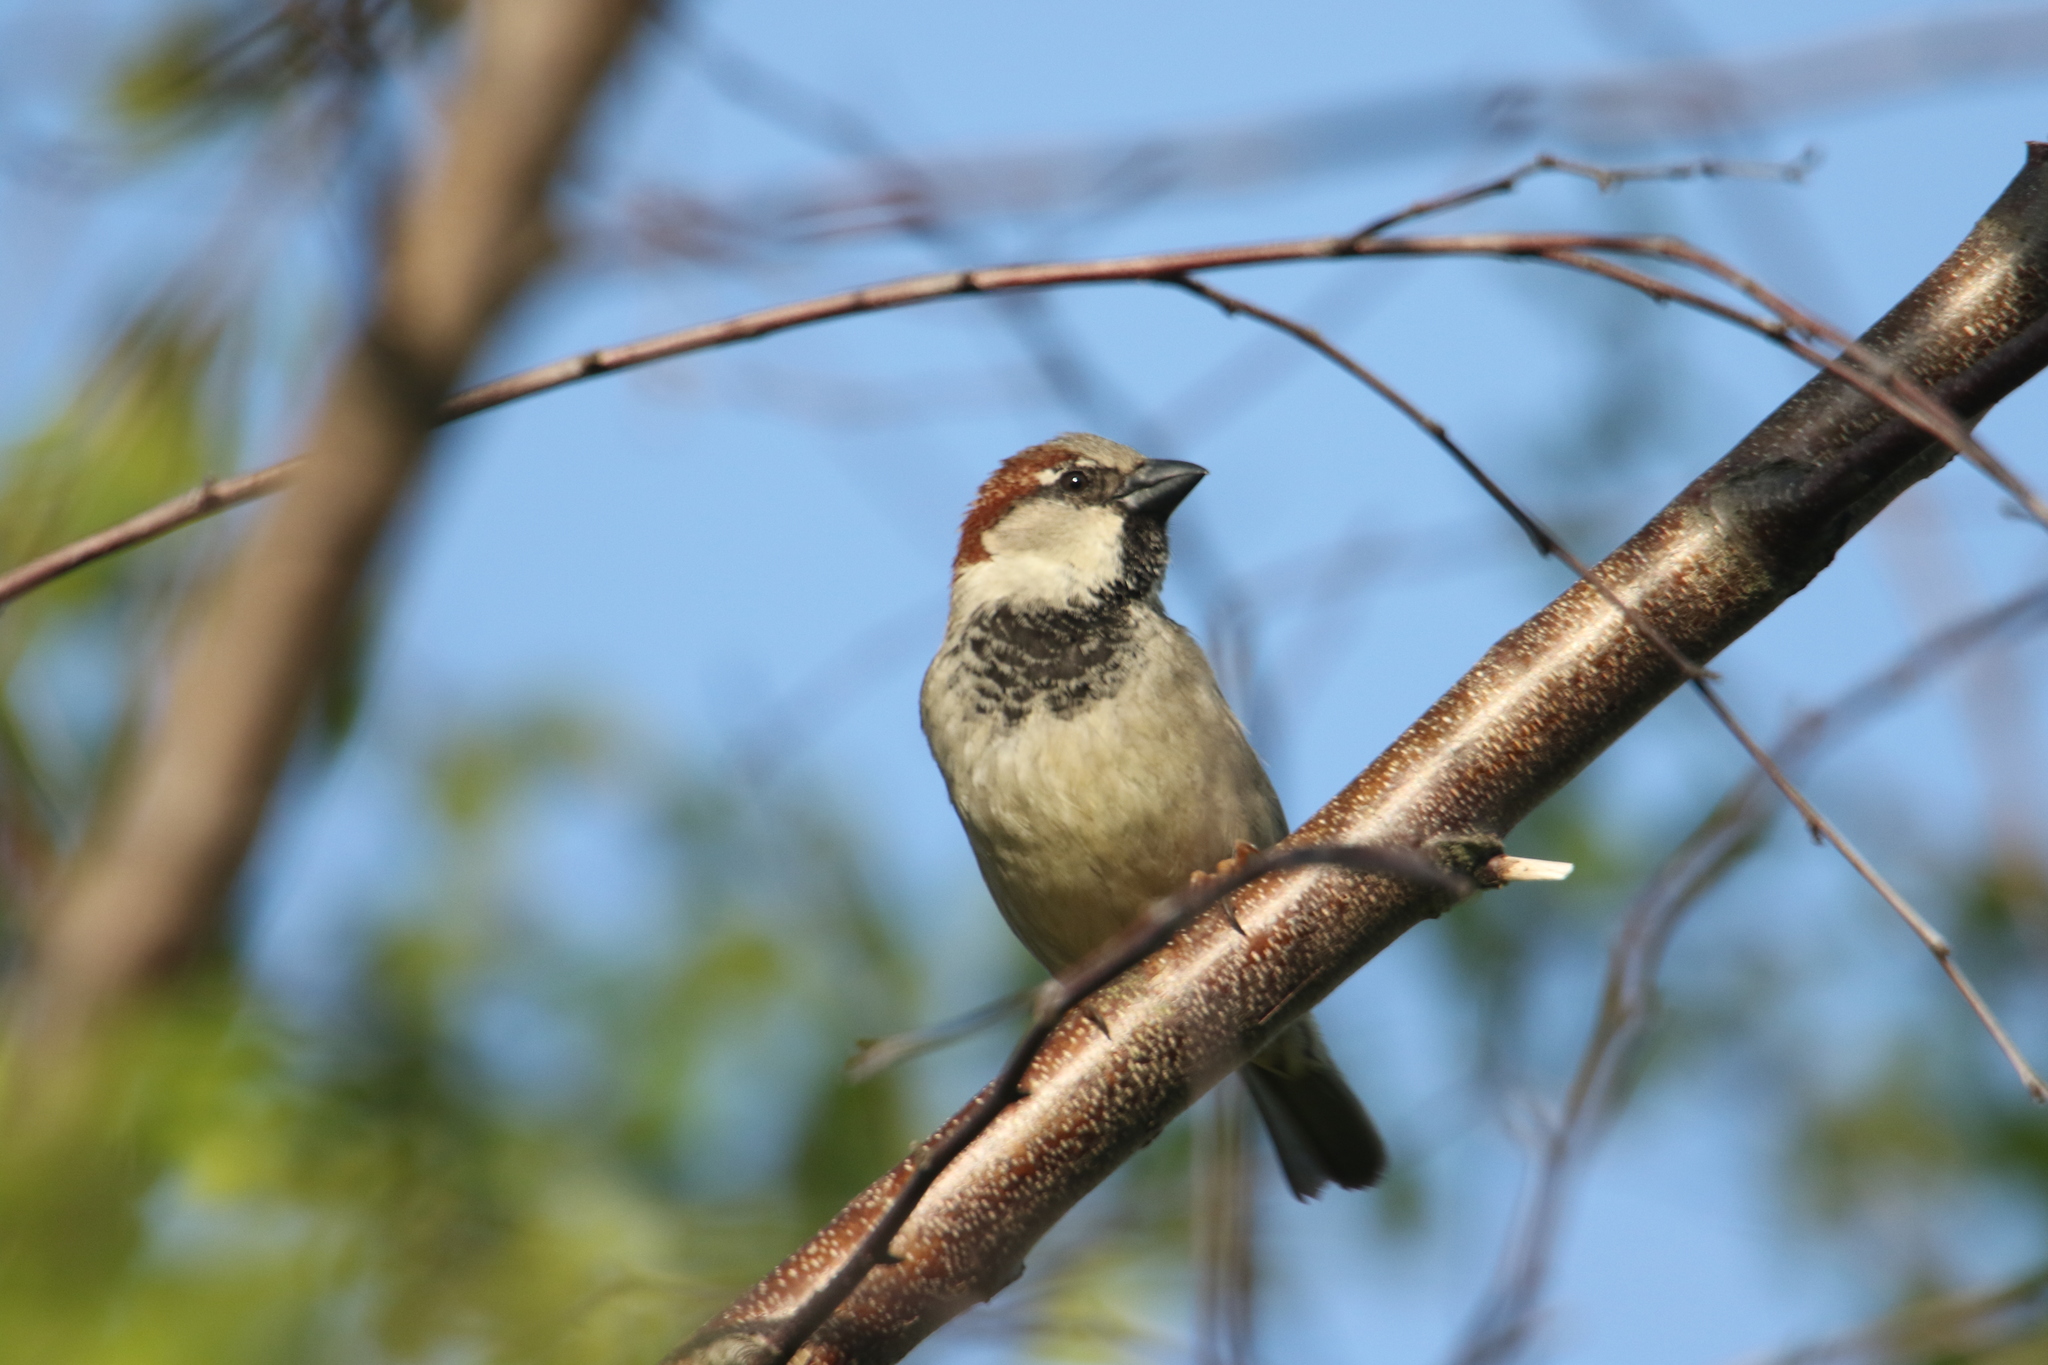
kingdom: Animalia
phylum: Chordata
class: Aves
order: Passeriformes
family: Passeridae
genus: Passer
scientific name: Passer domesticus
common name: House sparrow
